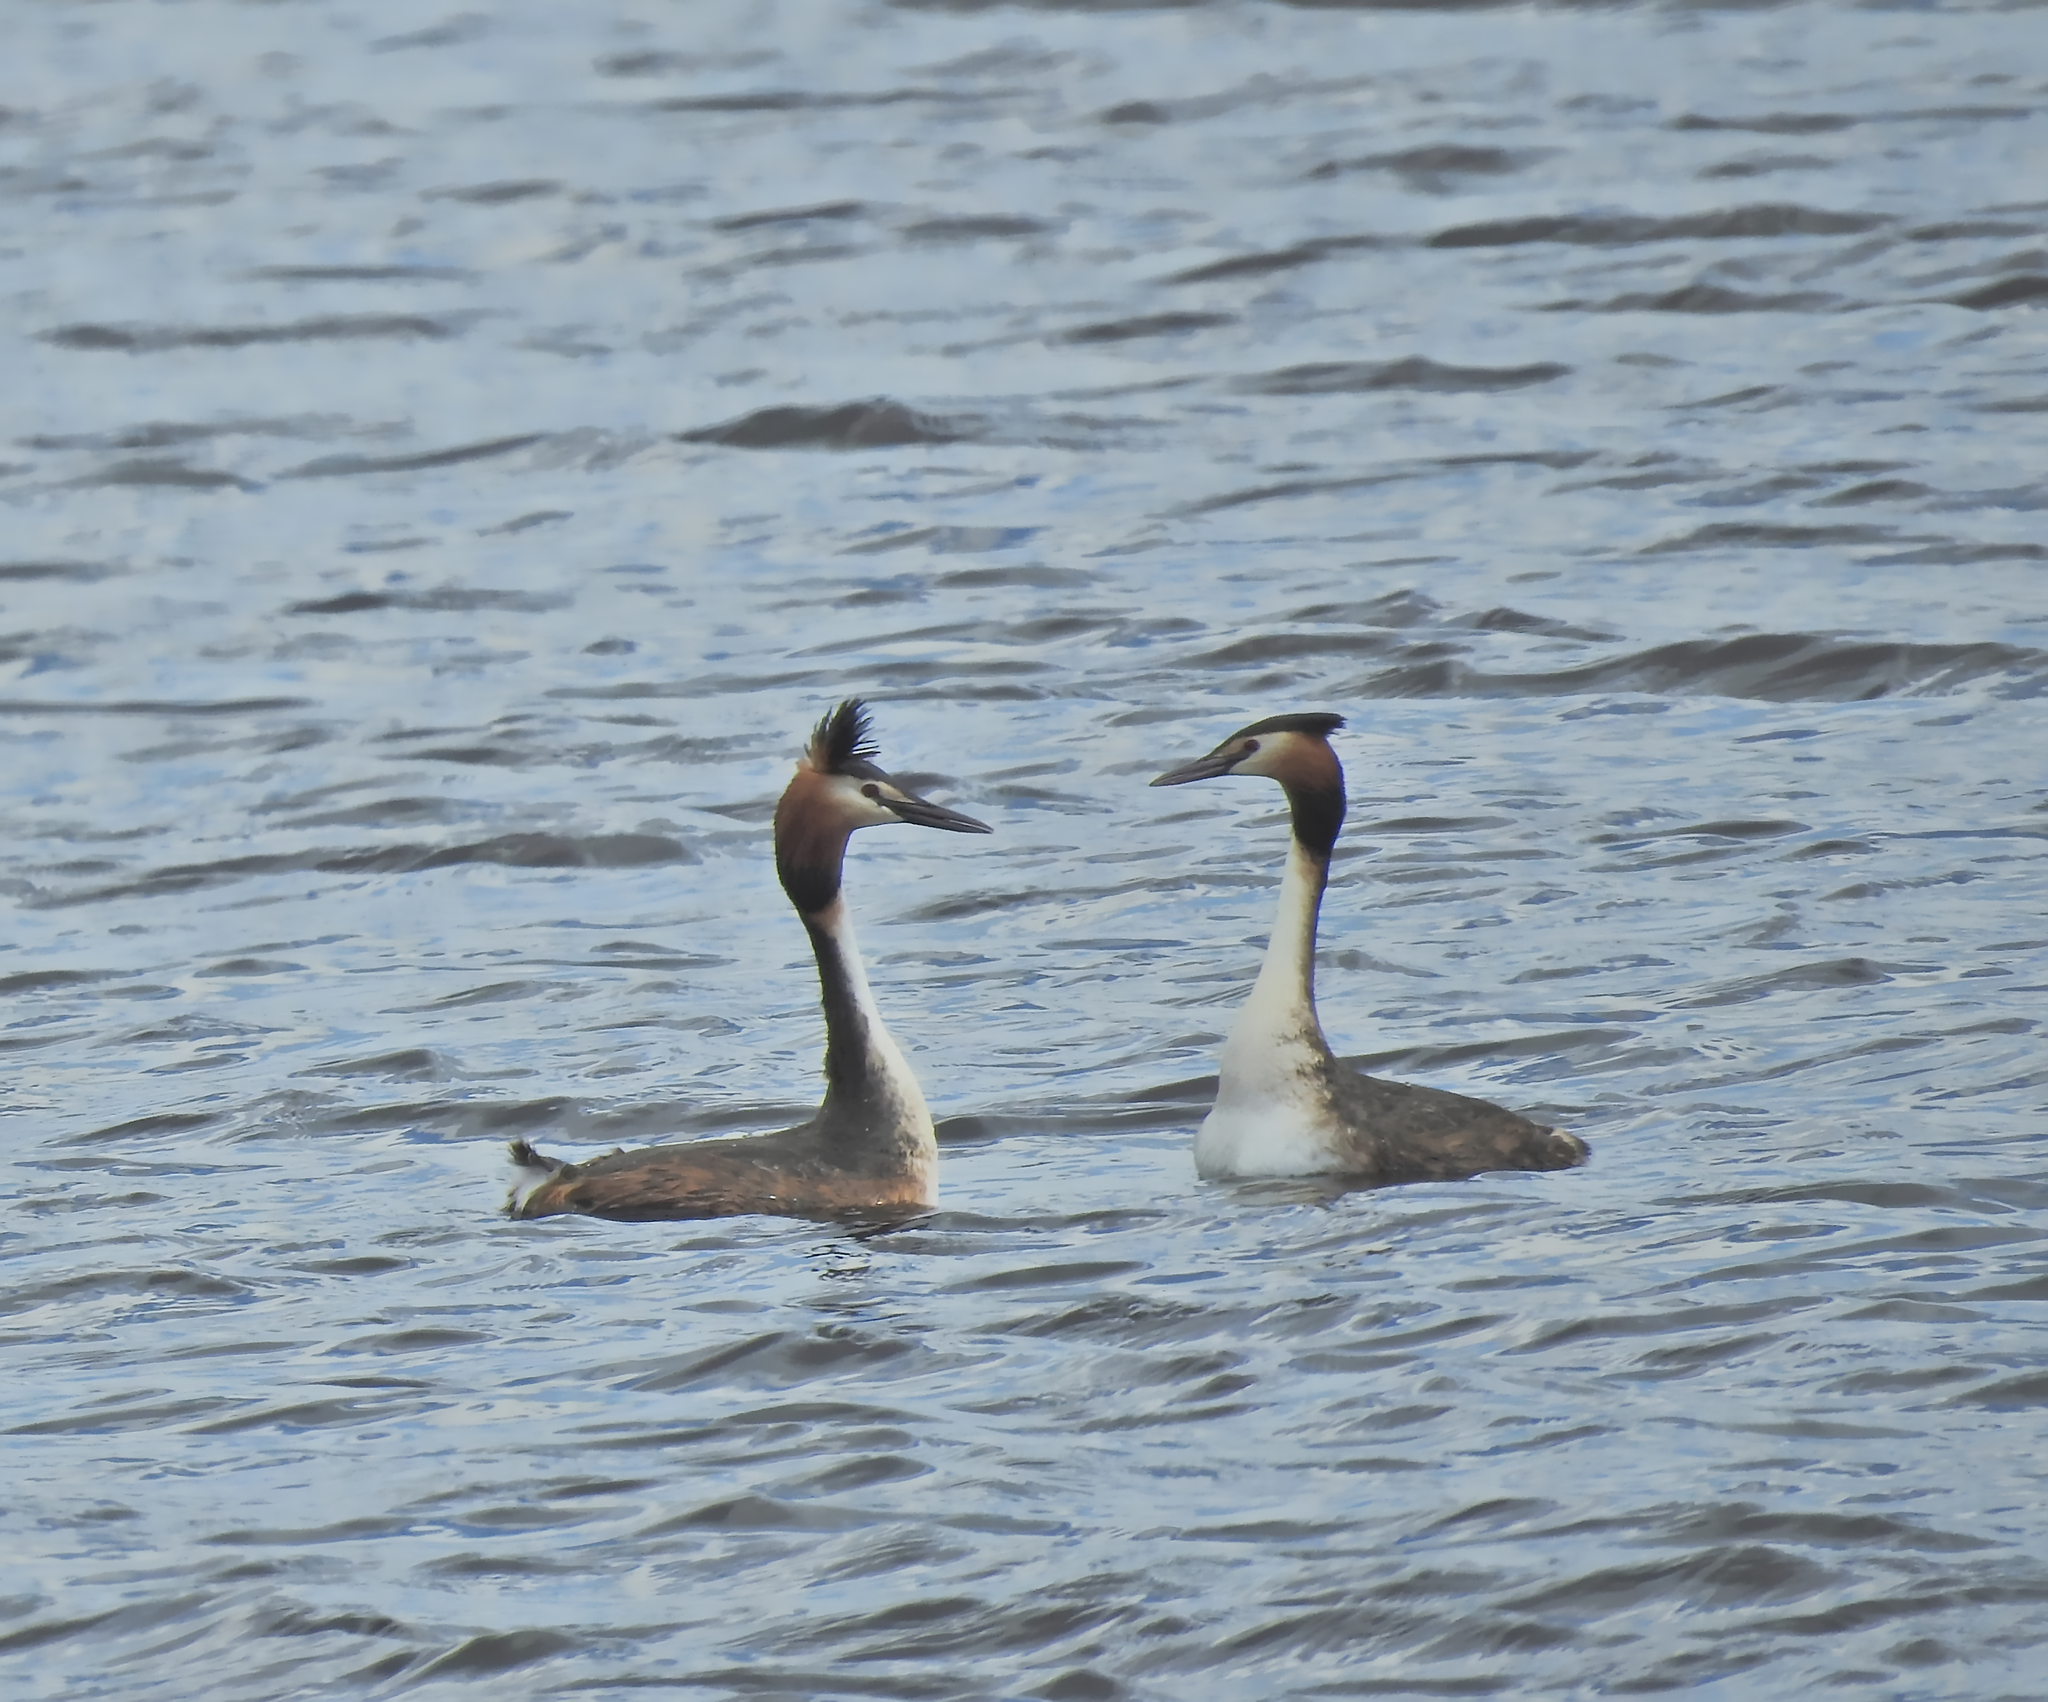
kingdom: Animalia
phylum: Chordata
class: Aves
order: Podicipediformes
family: Podicipedidae
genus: Podiceps
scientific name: Podiceps cristatus
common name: Great crested grebe
